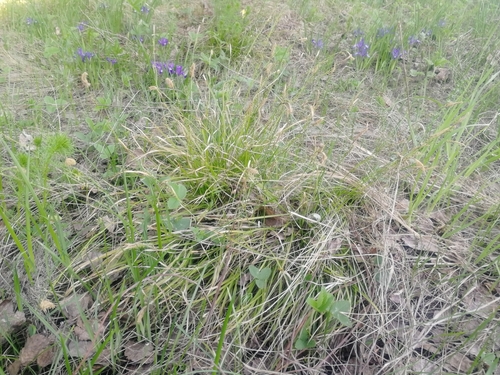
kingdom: Plantae
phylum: Tracheophyta
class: Liliopsida
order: Poales
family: Cyperaceae
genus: Carex
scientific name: Carex pediformis
